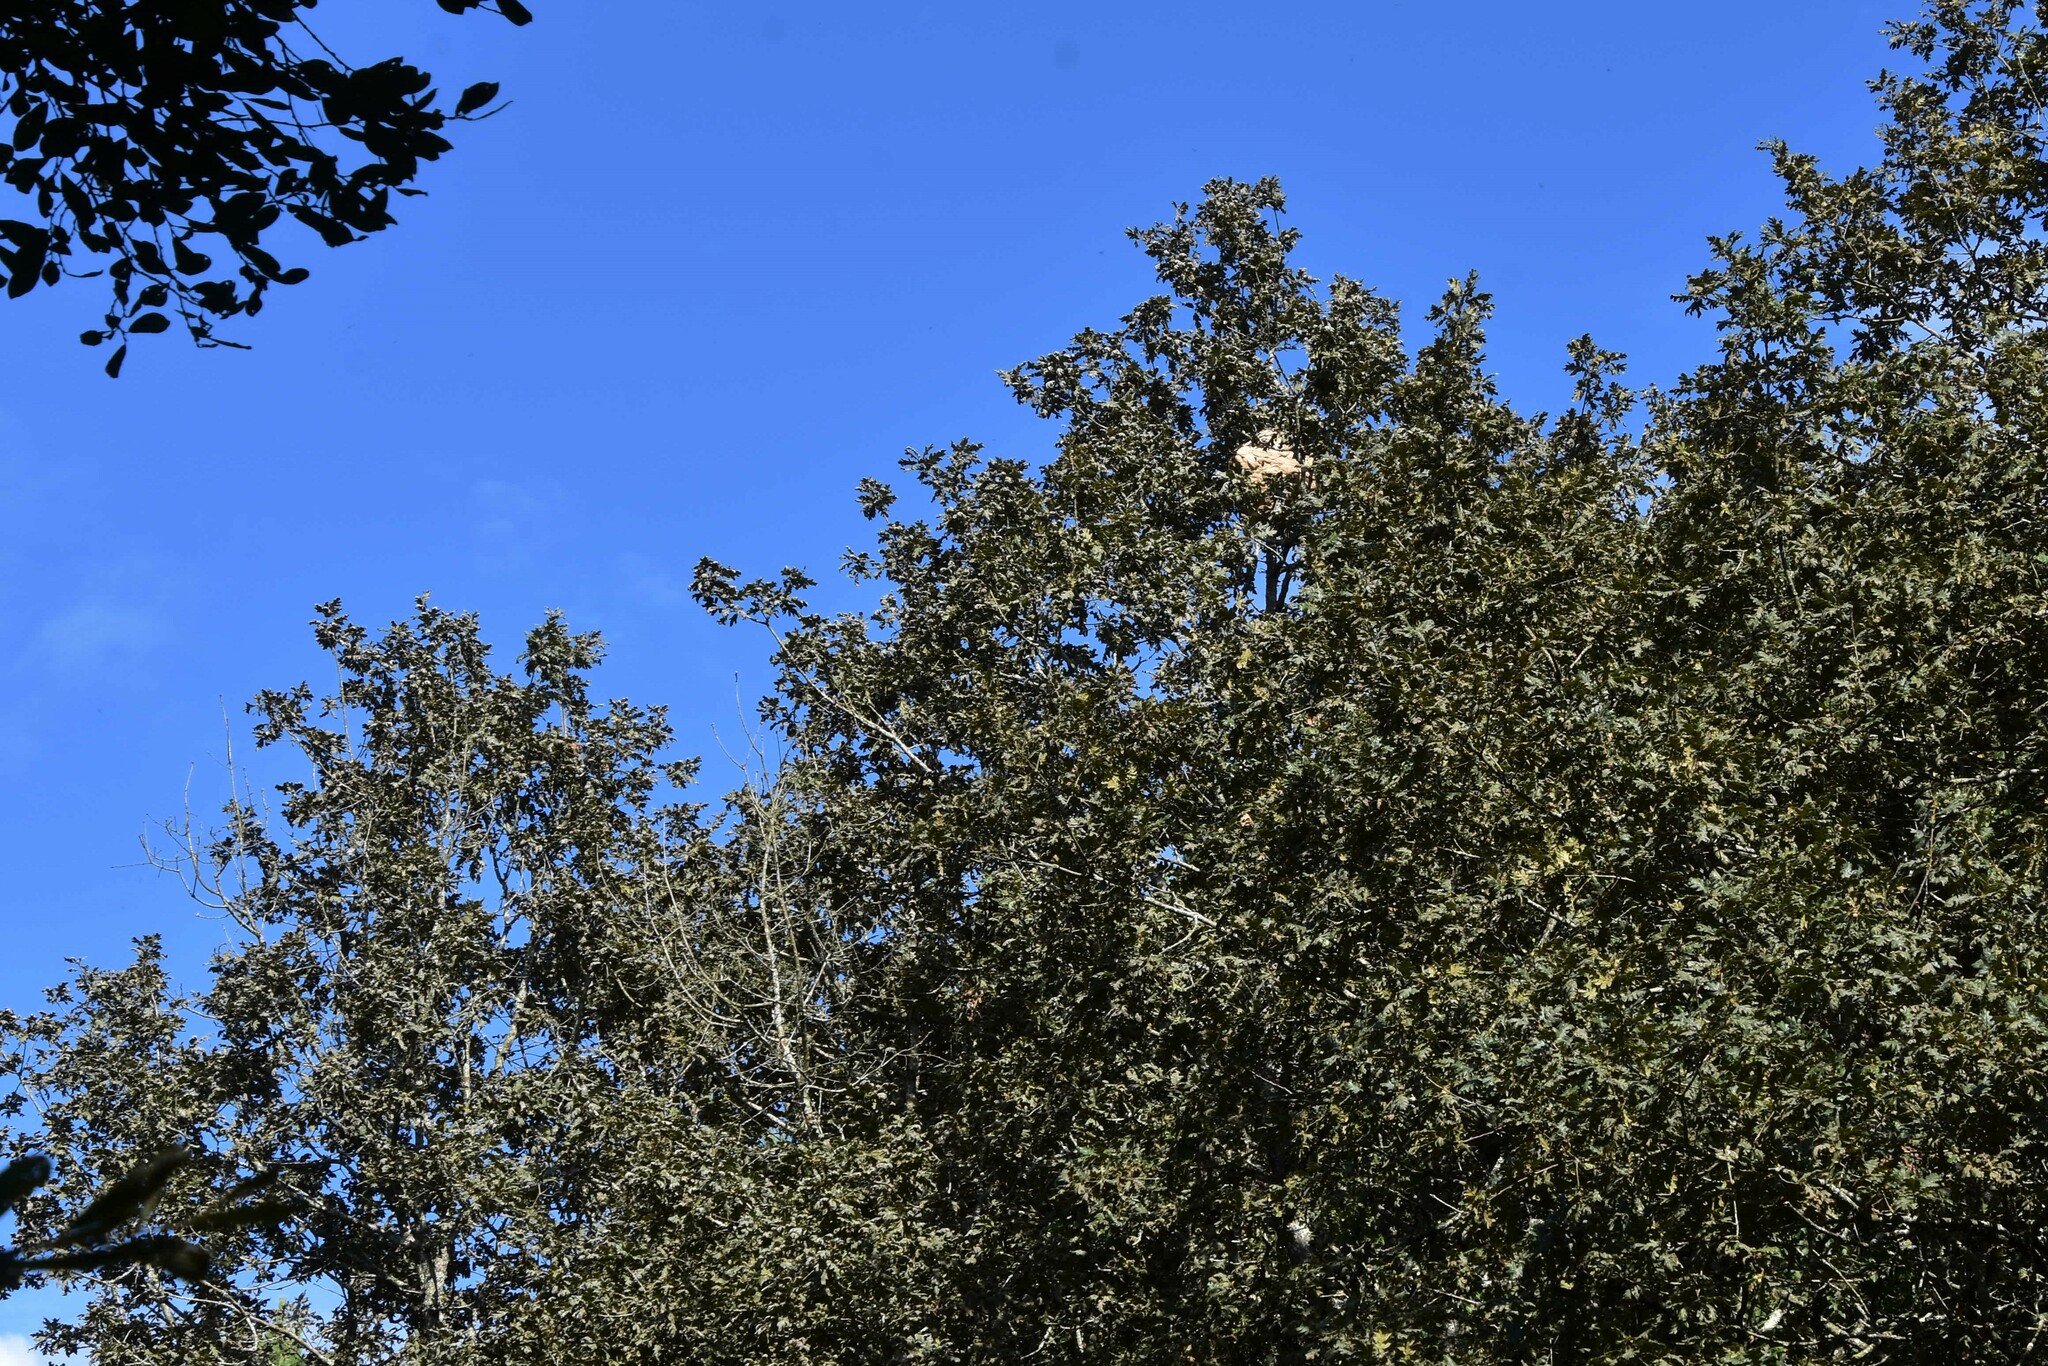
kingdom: Animalia
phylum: Arthropoda
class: Insecta
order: Hymenoptera
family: Vespidae
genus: Vespa
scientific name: Vespa velutina
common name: Asian hornet
